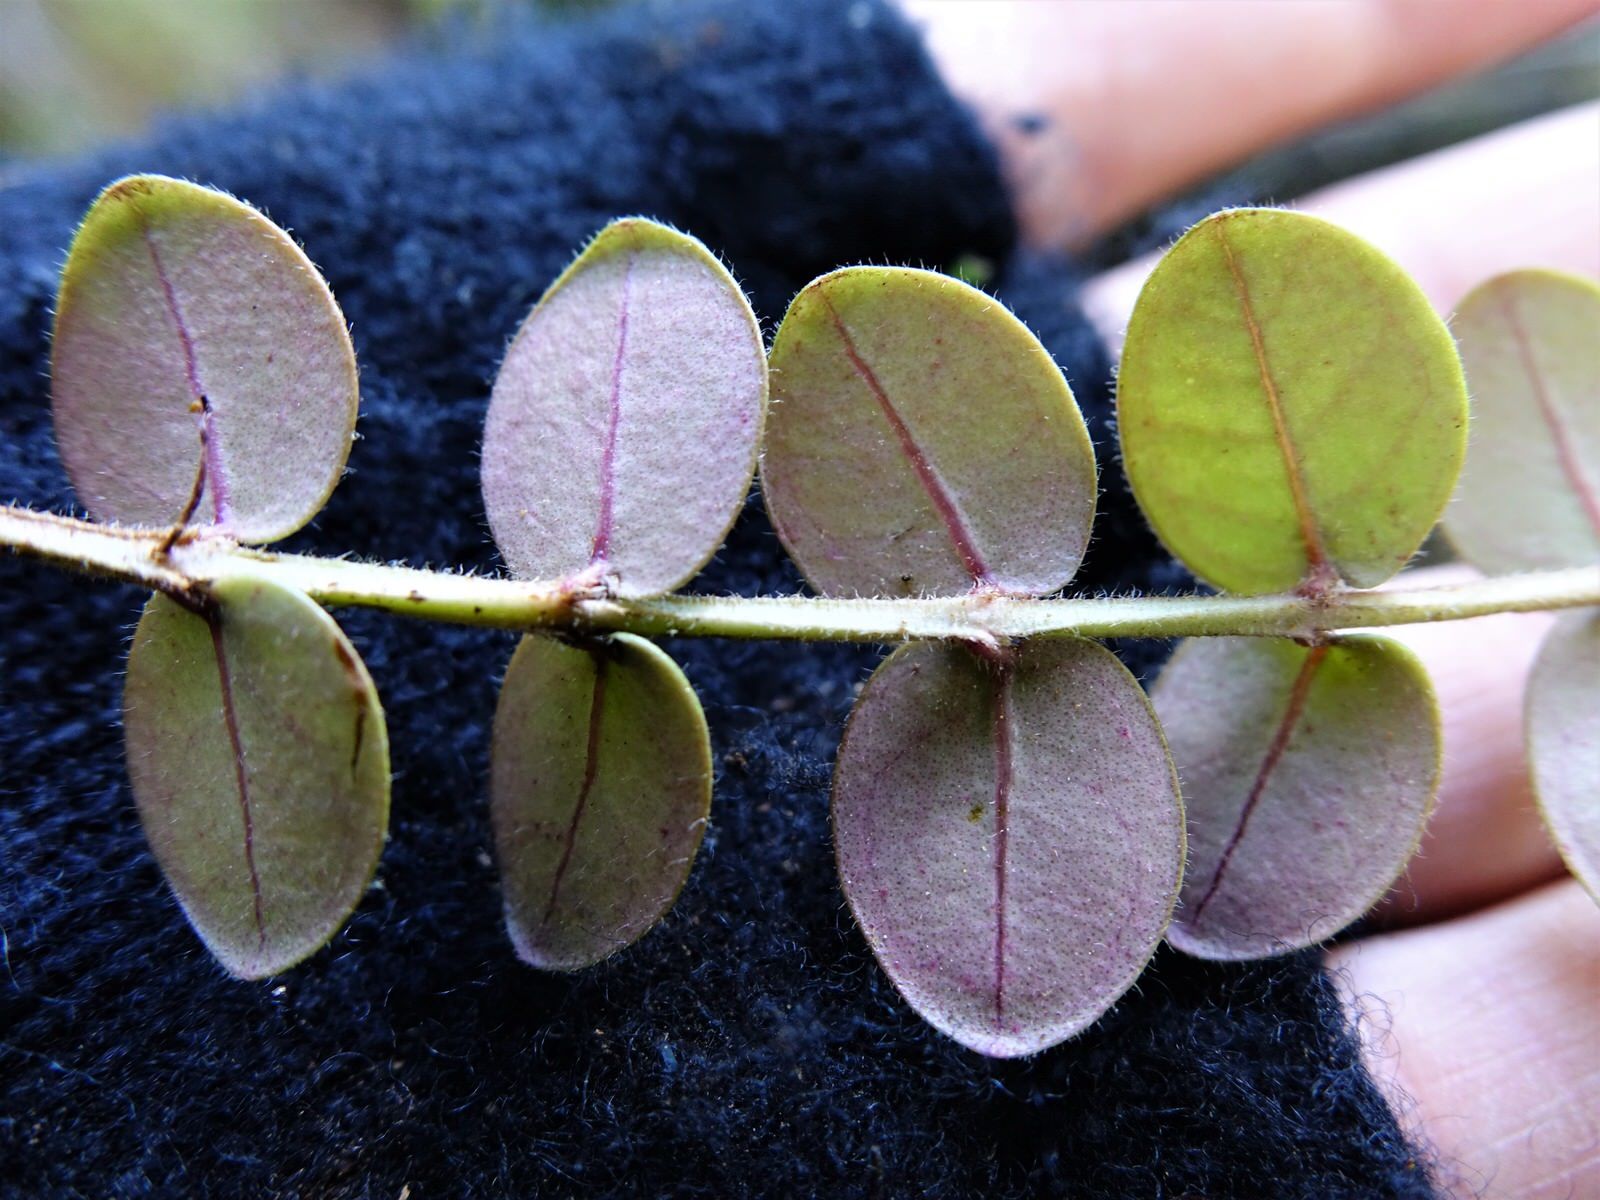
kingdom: Plantae
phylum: Tracheophyta
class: Magnoliopsida
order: Myrtales
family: Myrtaceae
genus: Metrosideros
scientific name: Metrosideros carminea
